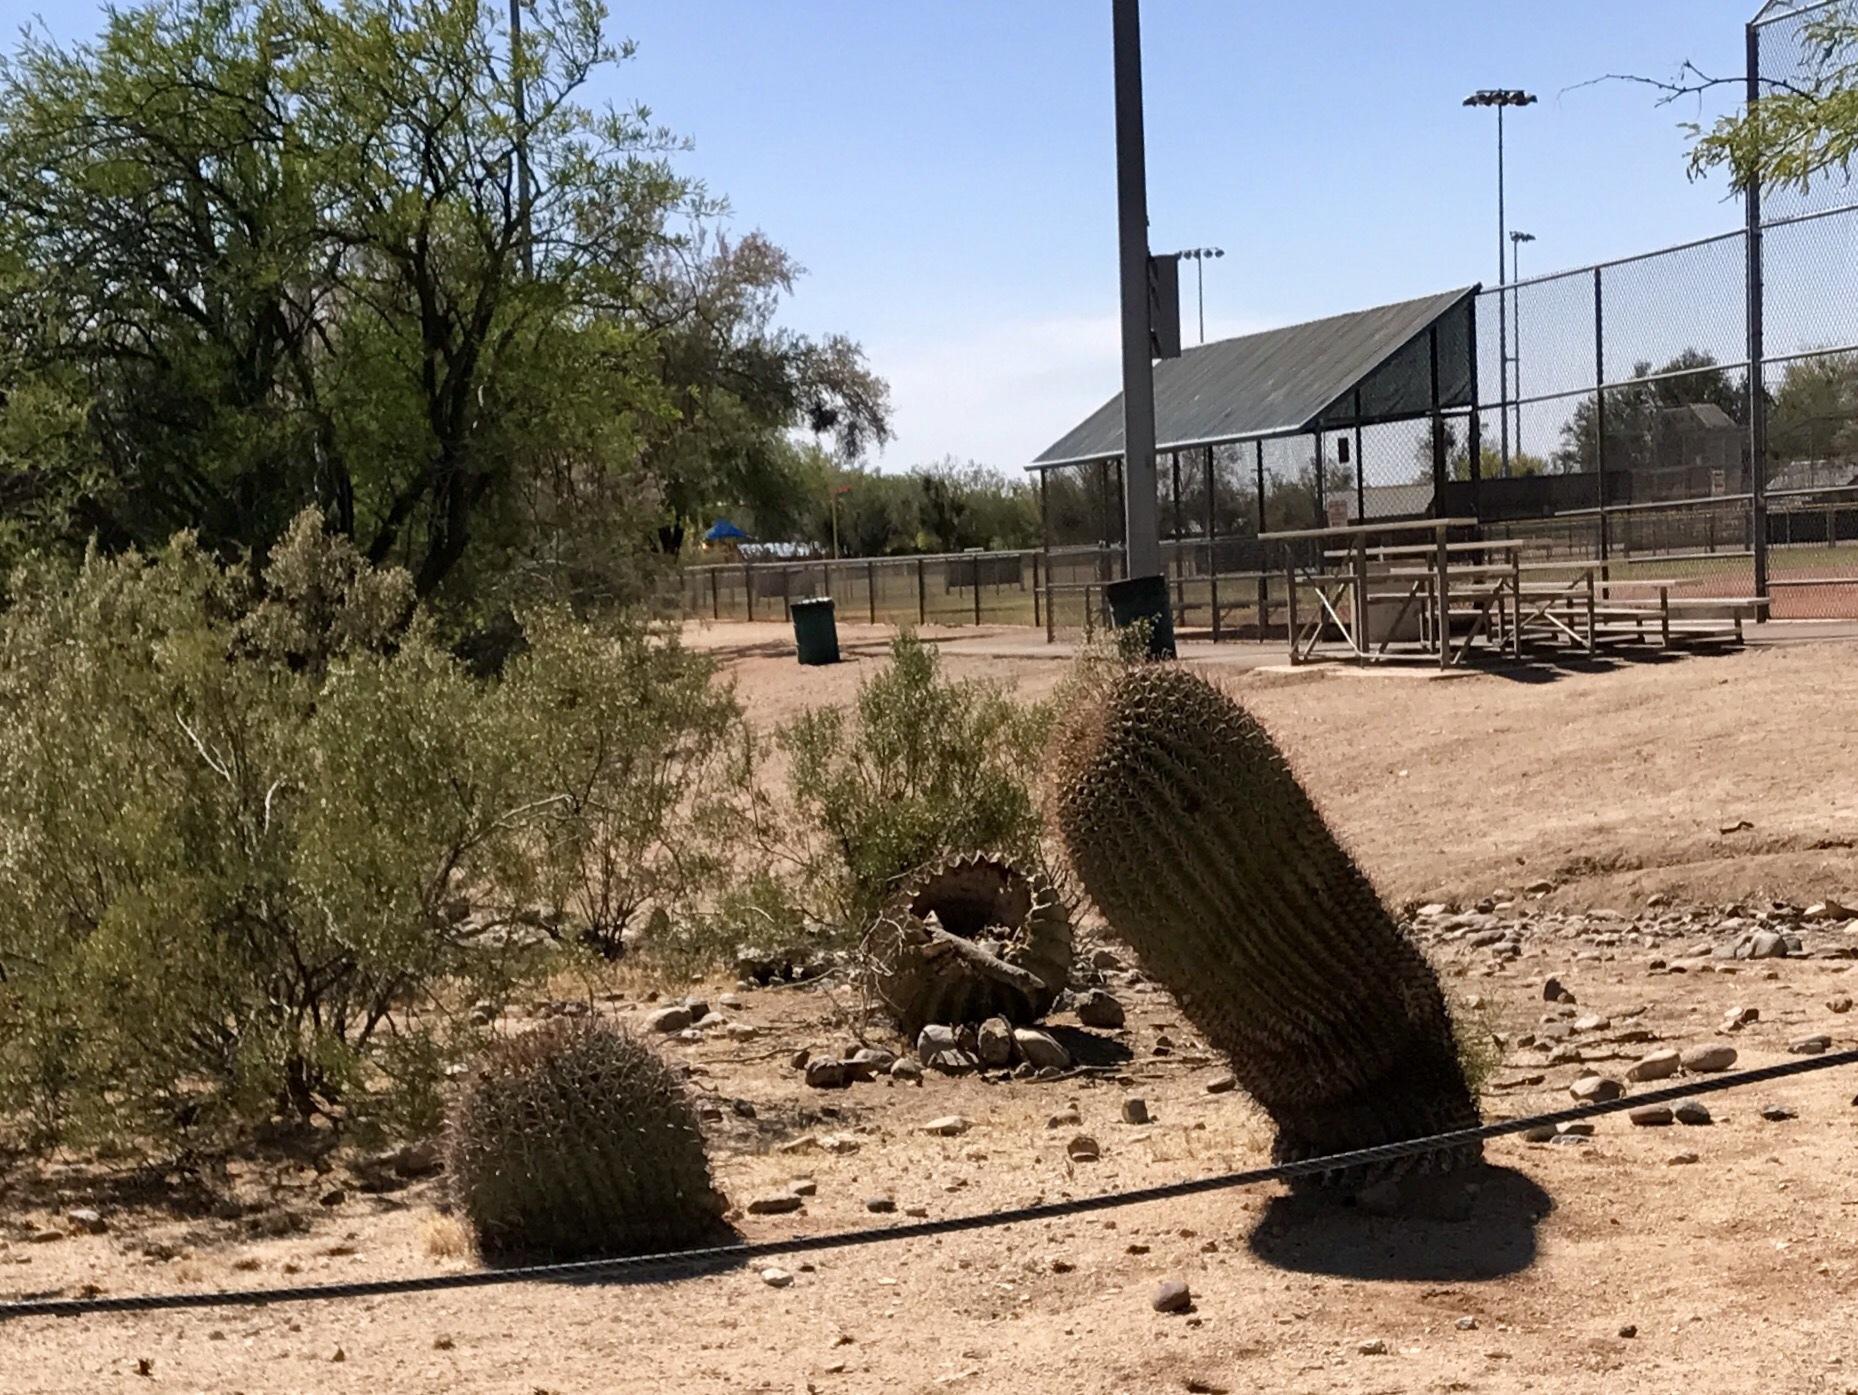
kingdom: Plantae
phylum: Tracheophyta
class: Magnoliopsida
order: Caryophyllales
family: Cactaceae
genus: Ferocactus
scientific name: Ferocactus wislizeni
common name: Candy barrel cactus
